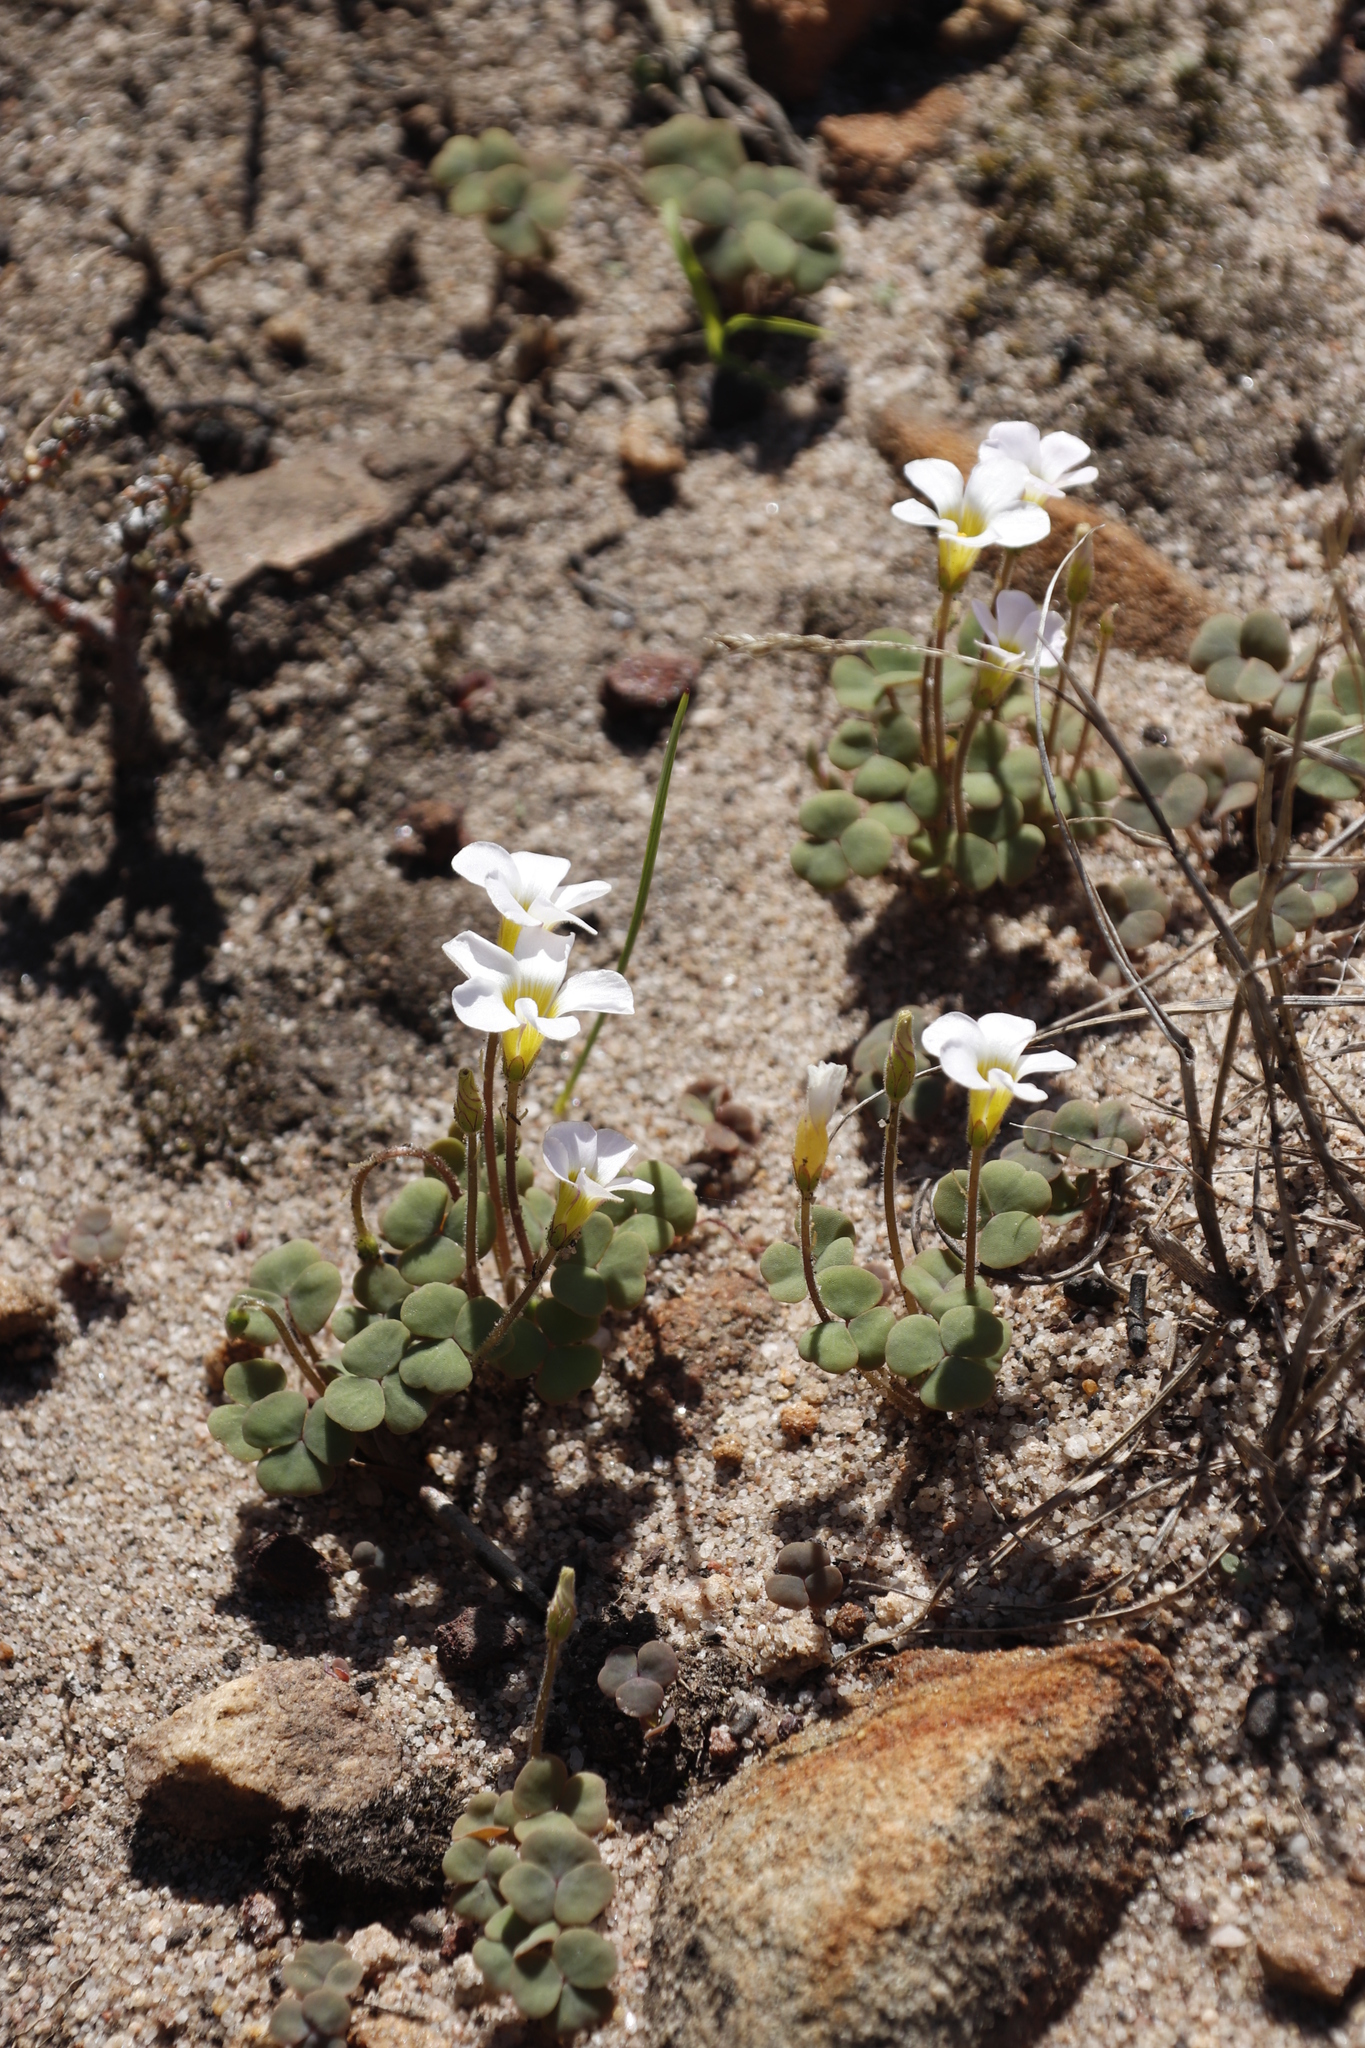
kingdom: Plantae
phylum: Tracheophyta
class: Magnoliopsida
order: Oxalidales
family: Oxalidaceae
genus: Oxalis
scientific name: Oxalis punctata
